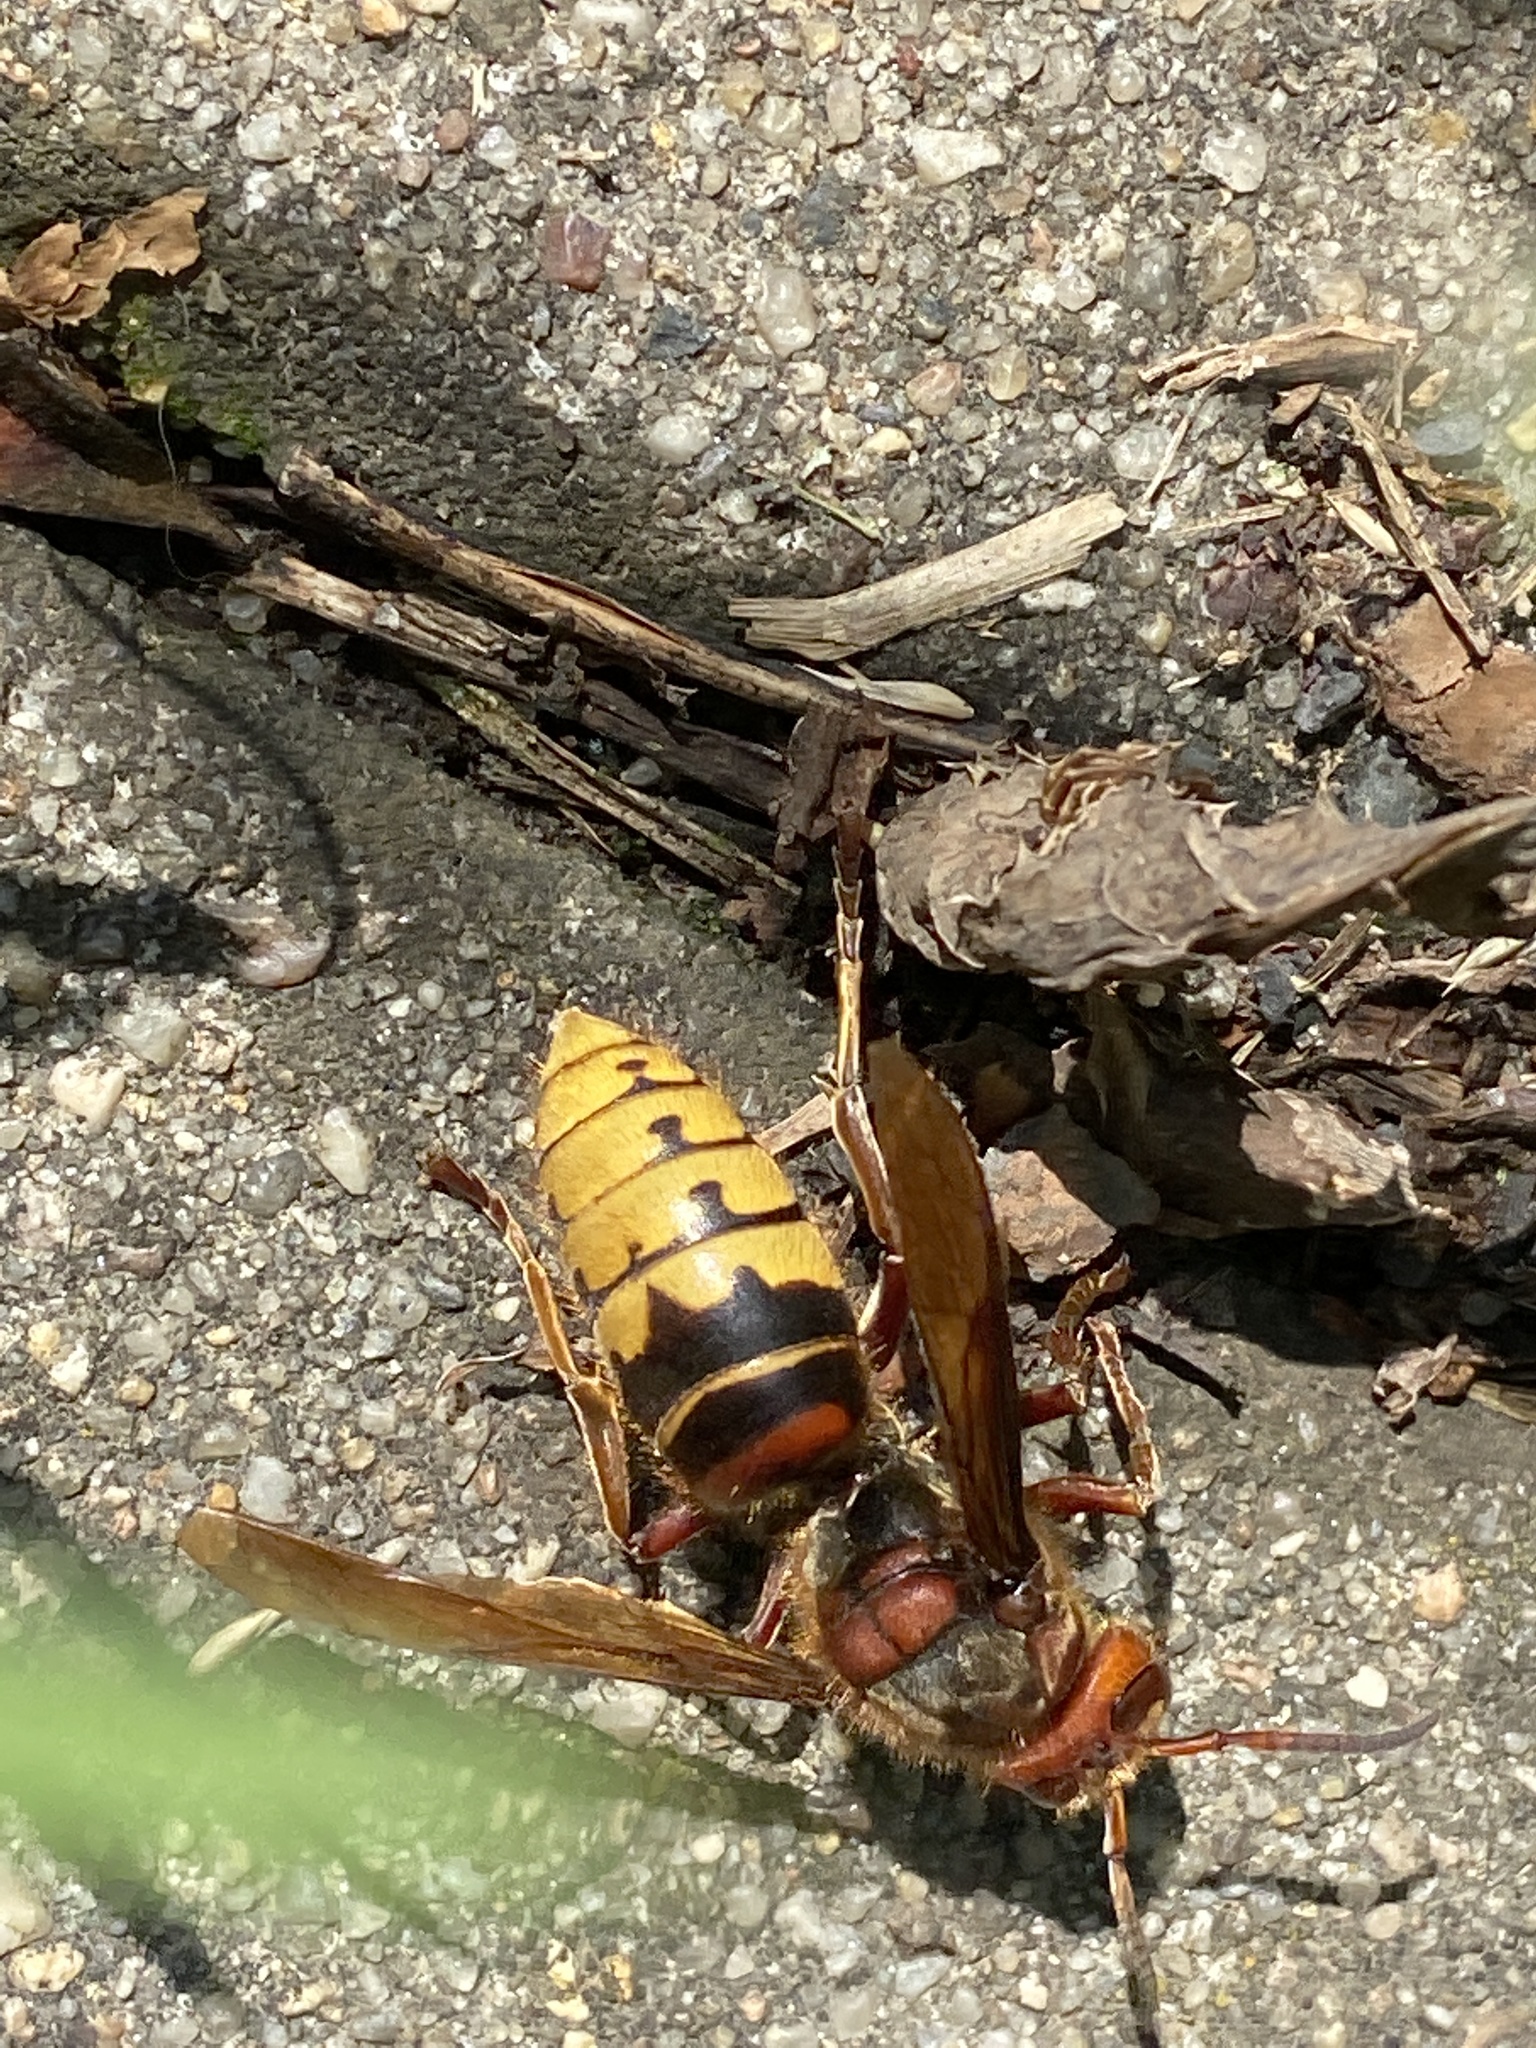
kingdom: Animalia
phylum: Arthropoda
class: Insecta
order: Hymenoptera
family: Vespidae
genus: Vespa
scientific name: Vespa crabro
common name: Hornet
